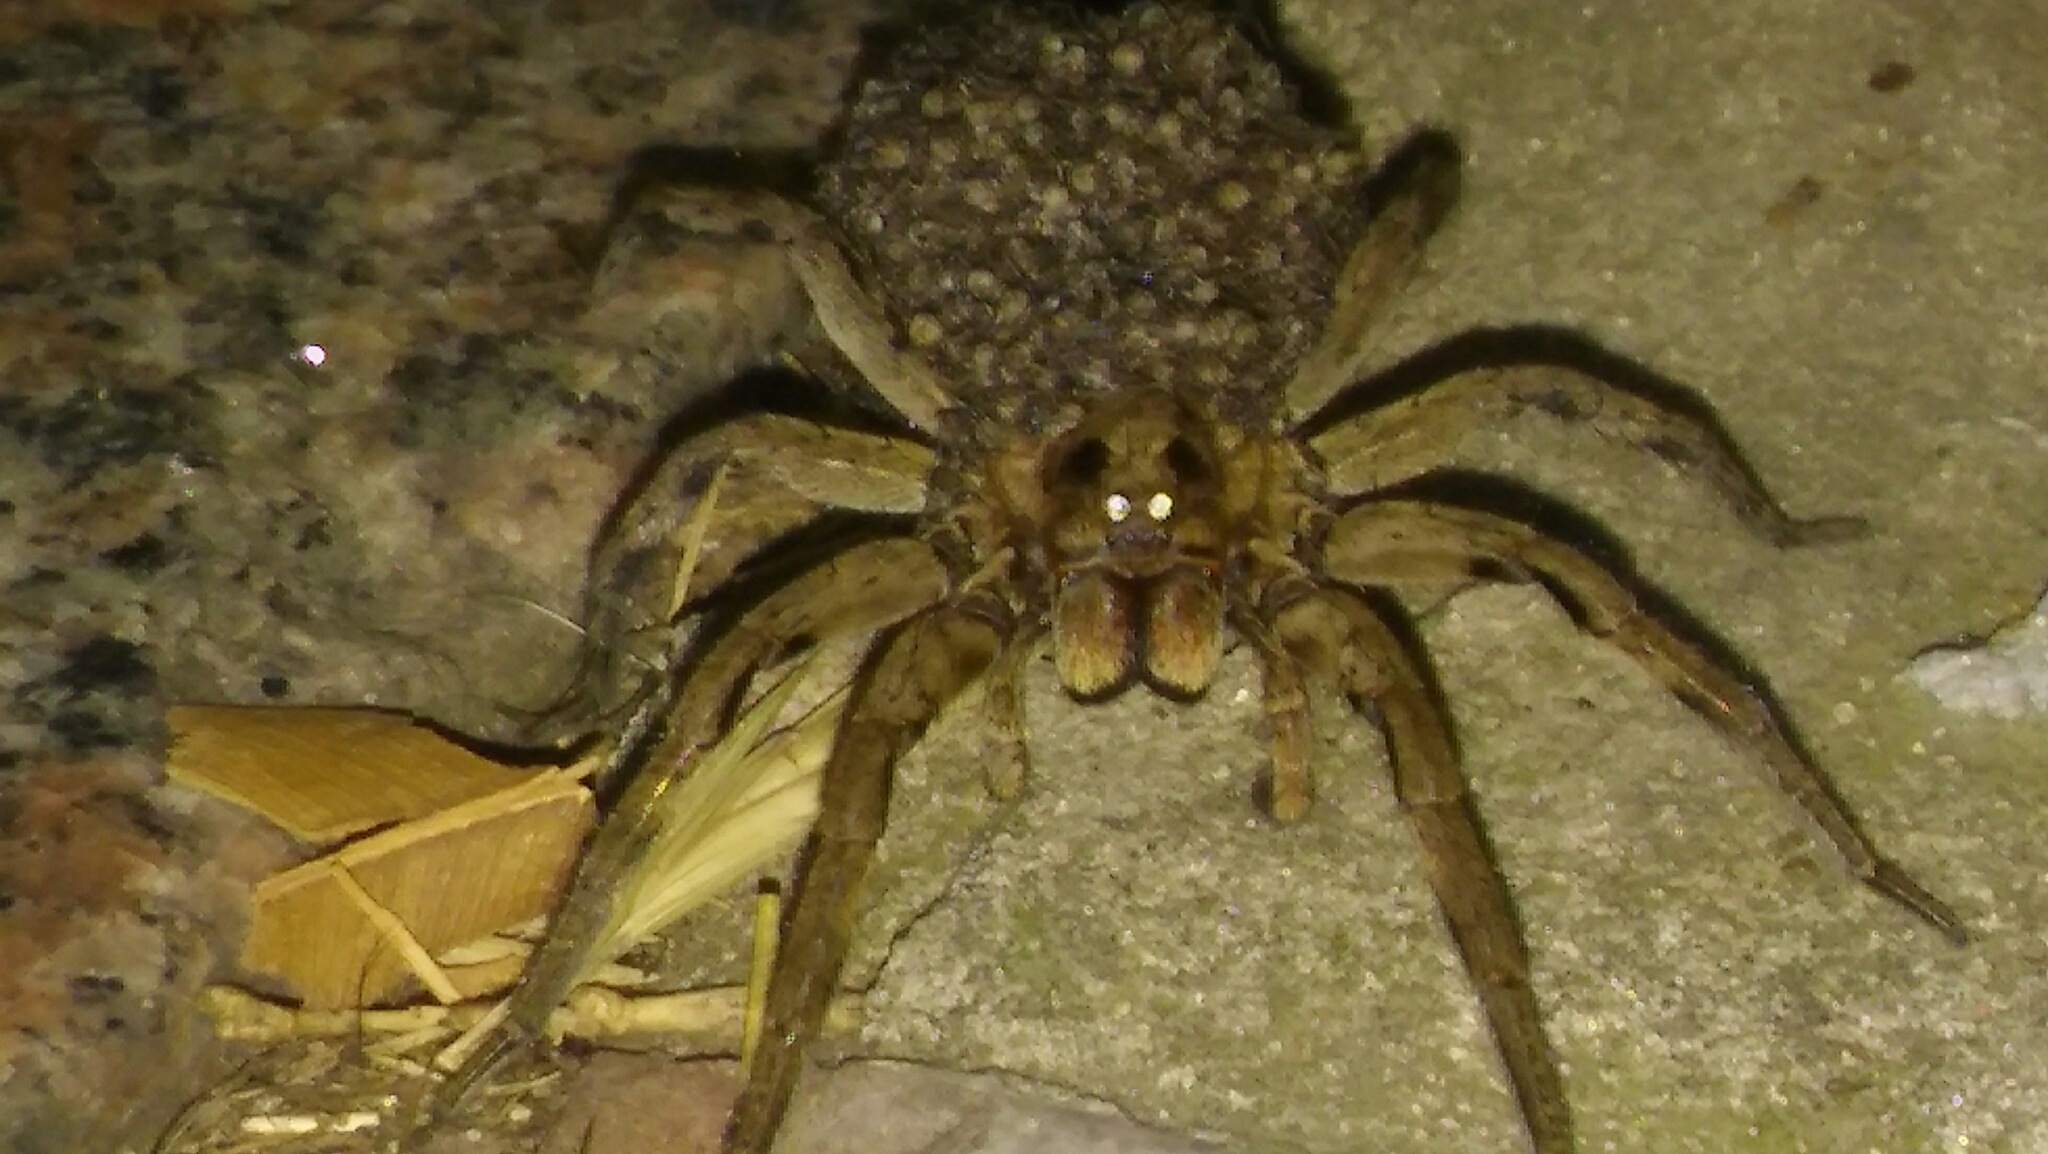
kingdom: Animalia
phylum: Arthropoda
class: Arachnida
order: Araneae
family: Lycosidae
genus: Lycosa
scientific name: Lycosa erythrognatha
